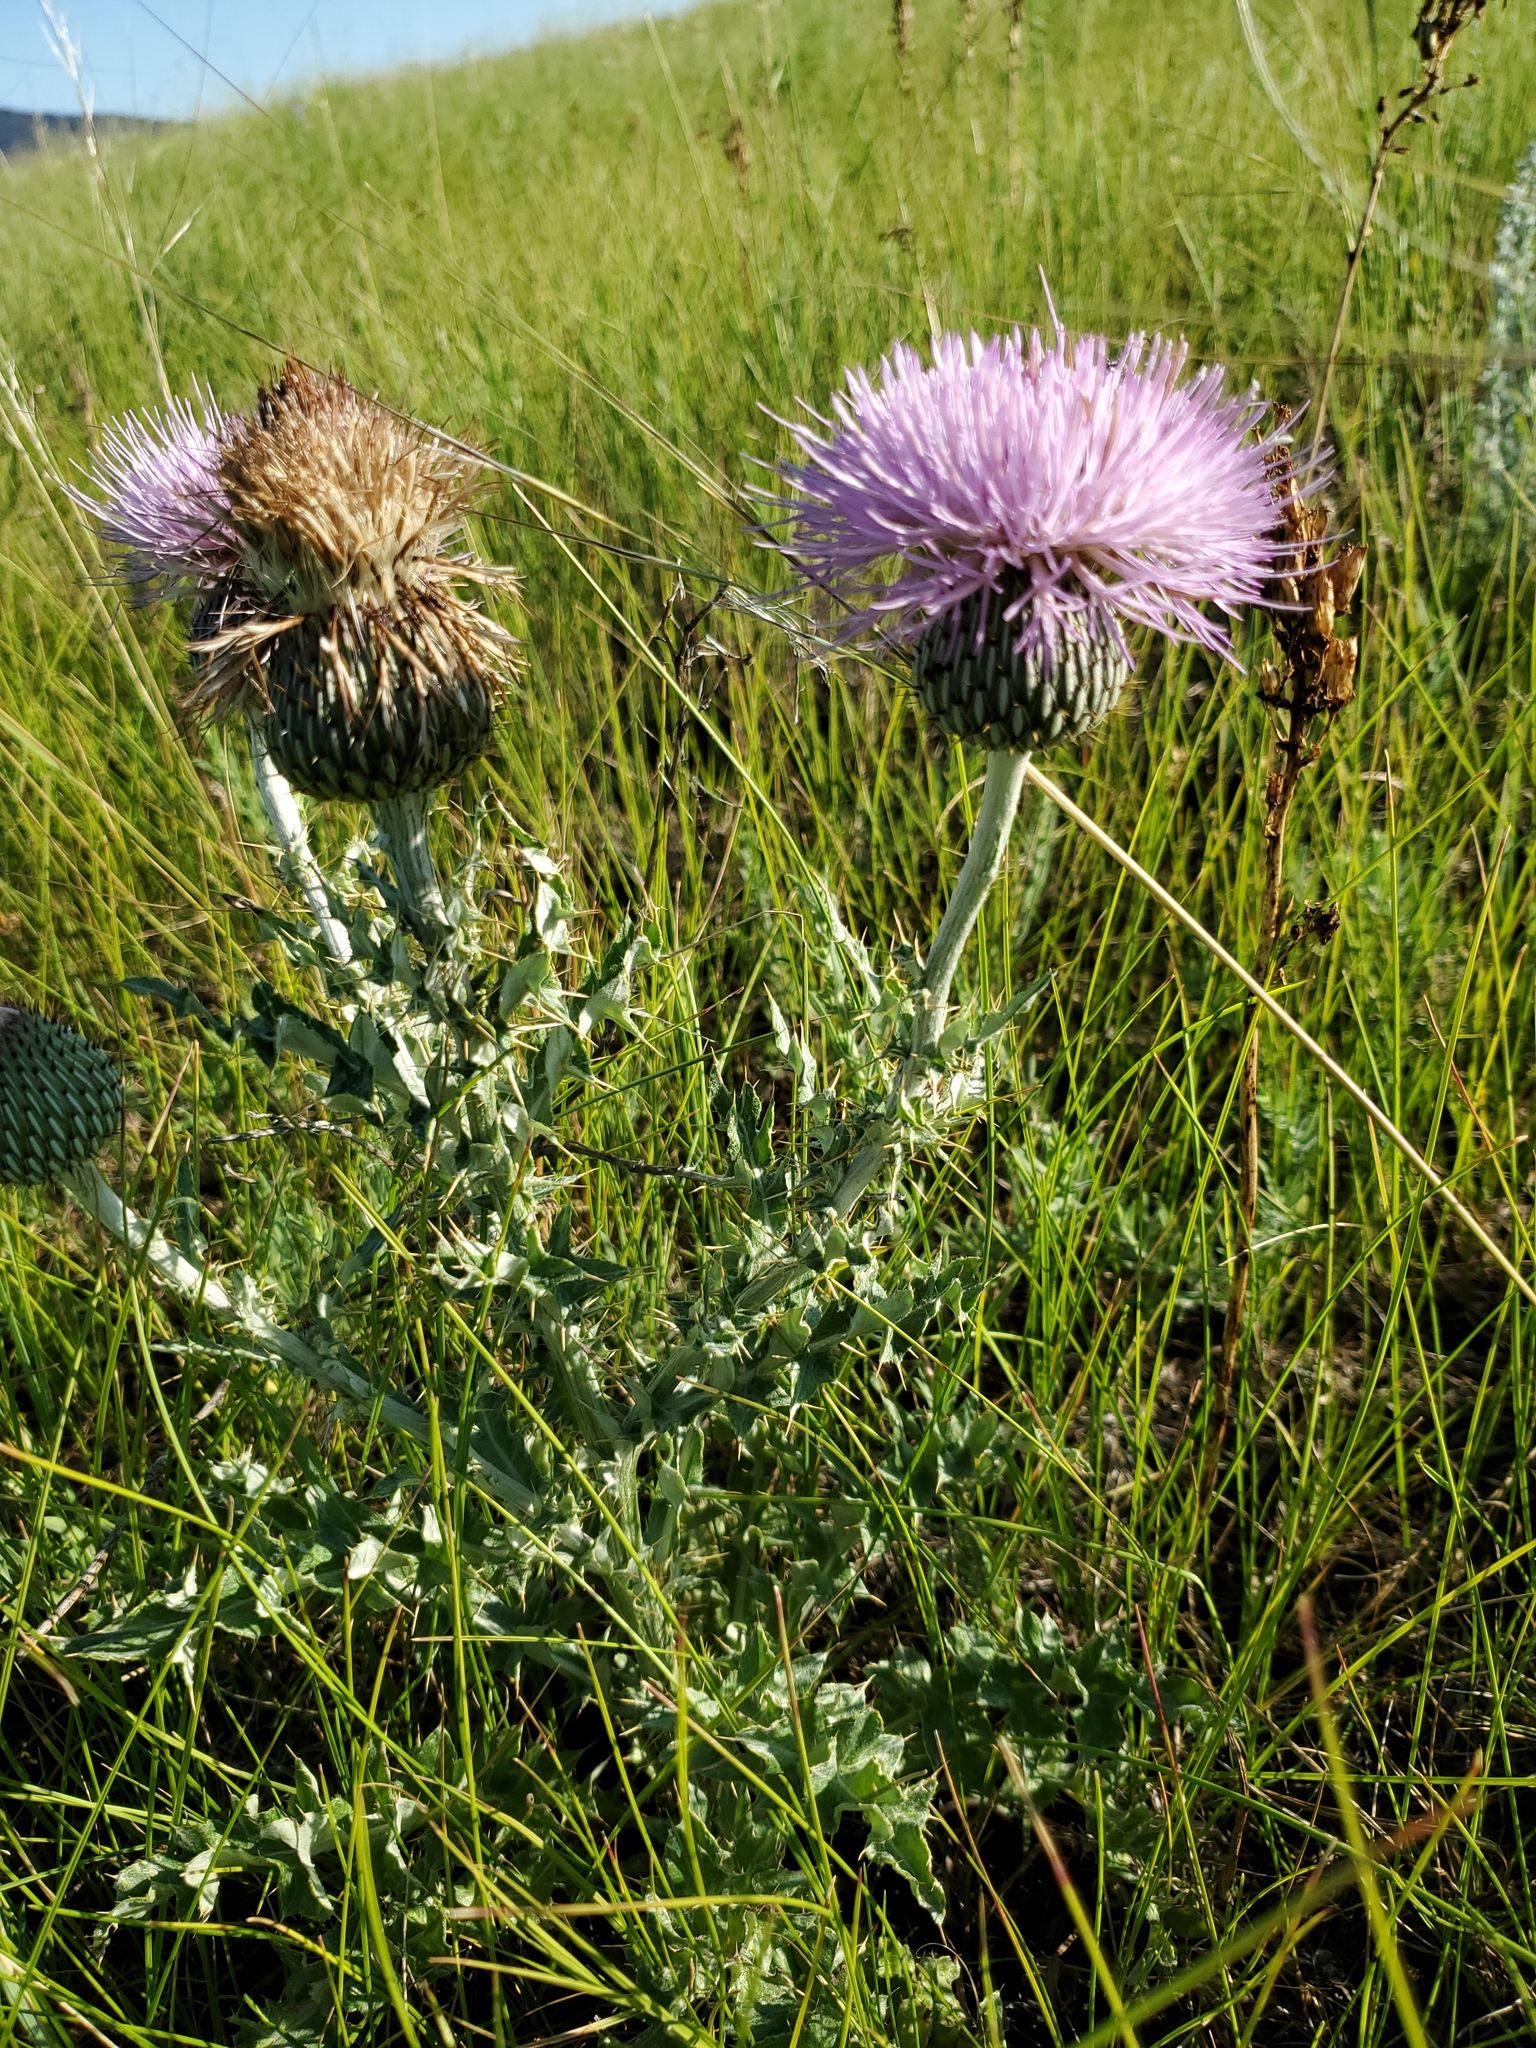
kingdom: Plantae
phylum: Tracheophyta
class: Magnoliopsida
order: Asterales
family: Asteraceae
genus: Cirsium
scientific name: Cirsium undulatum
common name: Pasture thistle
